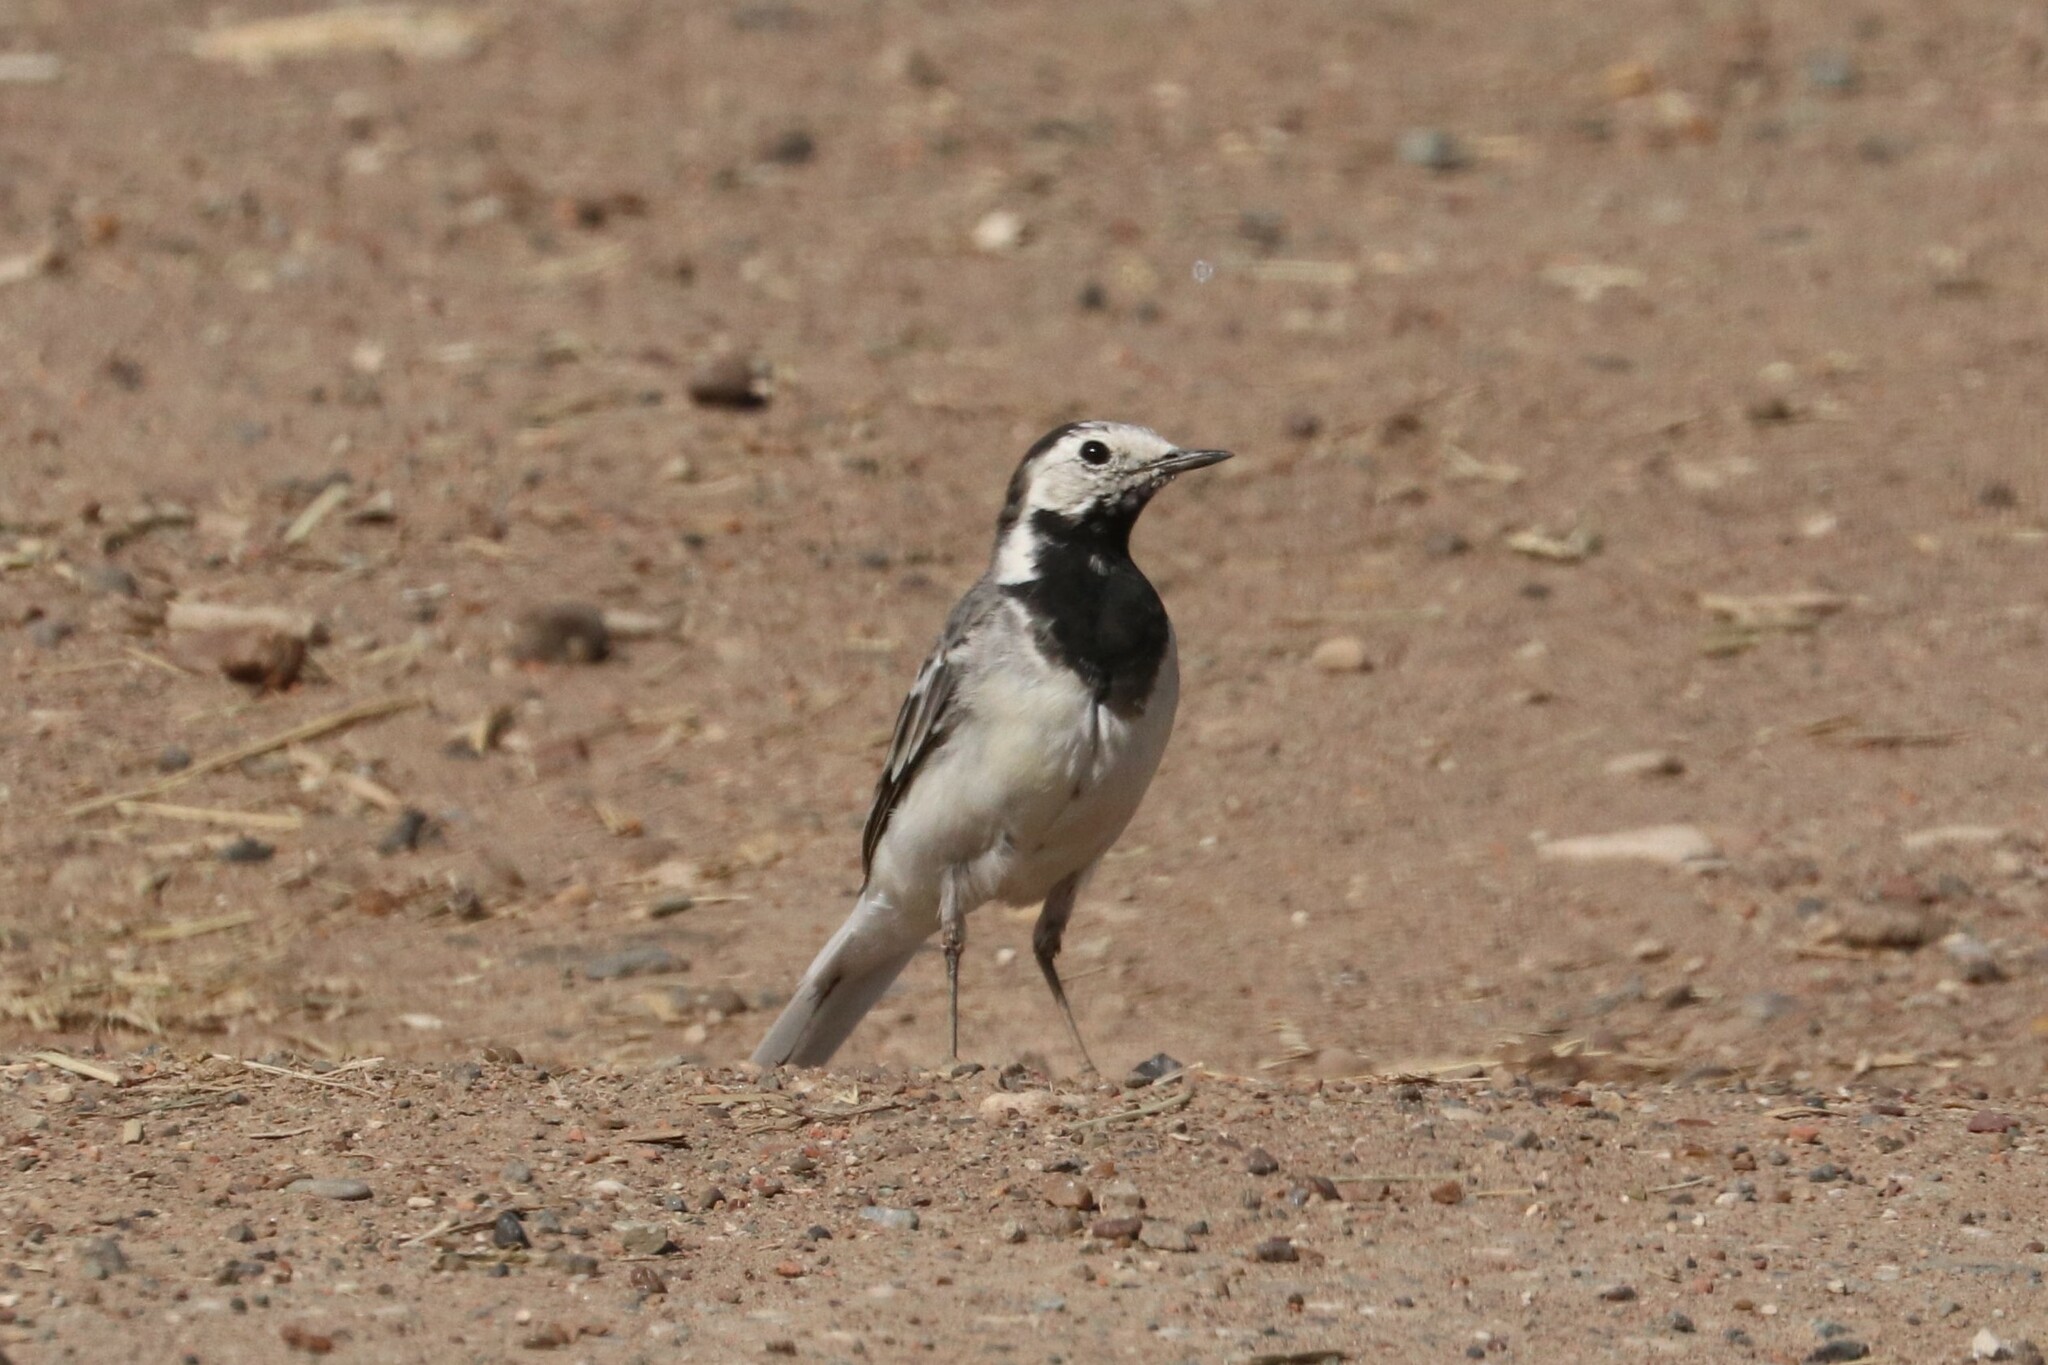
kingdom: Animalia
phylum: Chordata
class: Aves
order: Passeriformes
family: Motacillidae
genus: Motacilla
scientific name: Motacilla alba
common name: White wagtail
